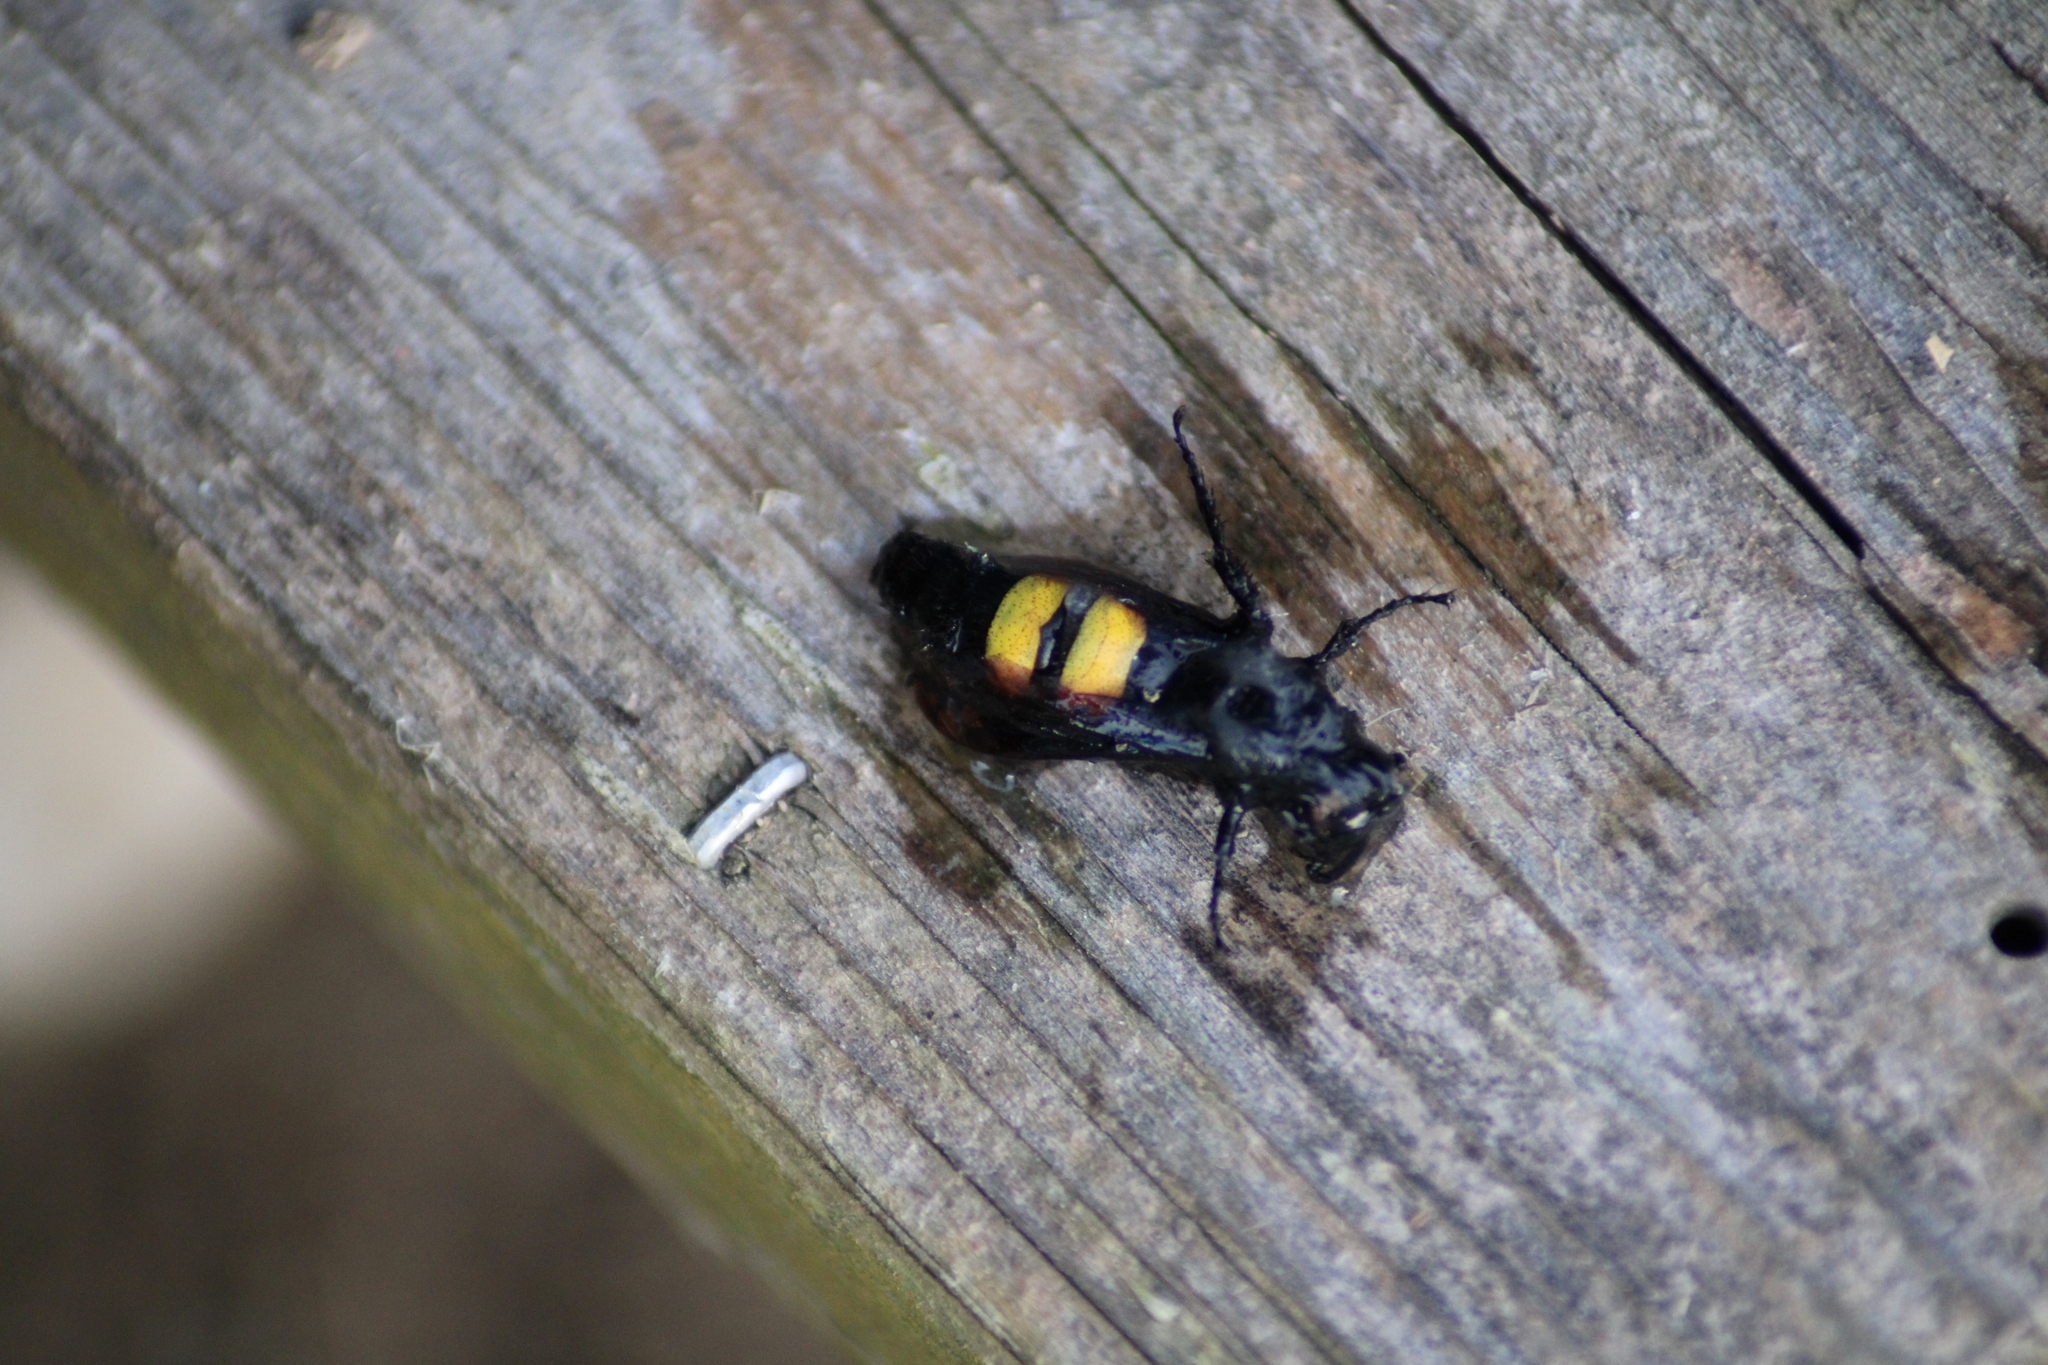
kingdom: Animalia
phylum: Arthropoda
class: Insecta
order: Hymenoptera
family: Scoliidae
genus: Scolia
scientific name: Scolia hirta
